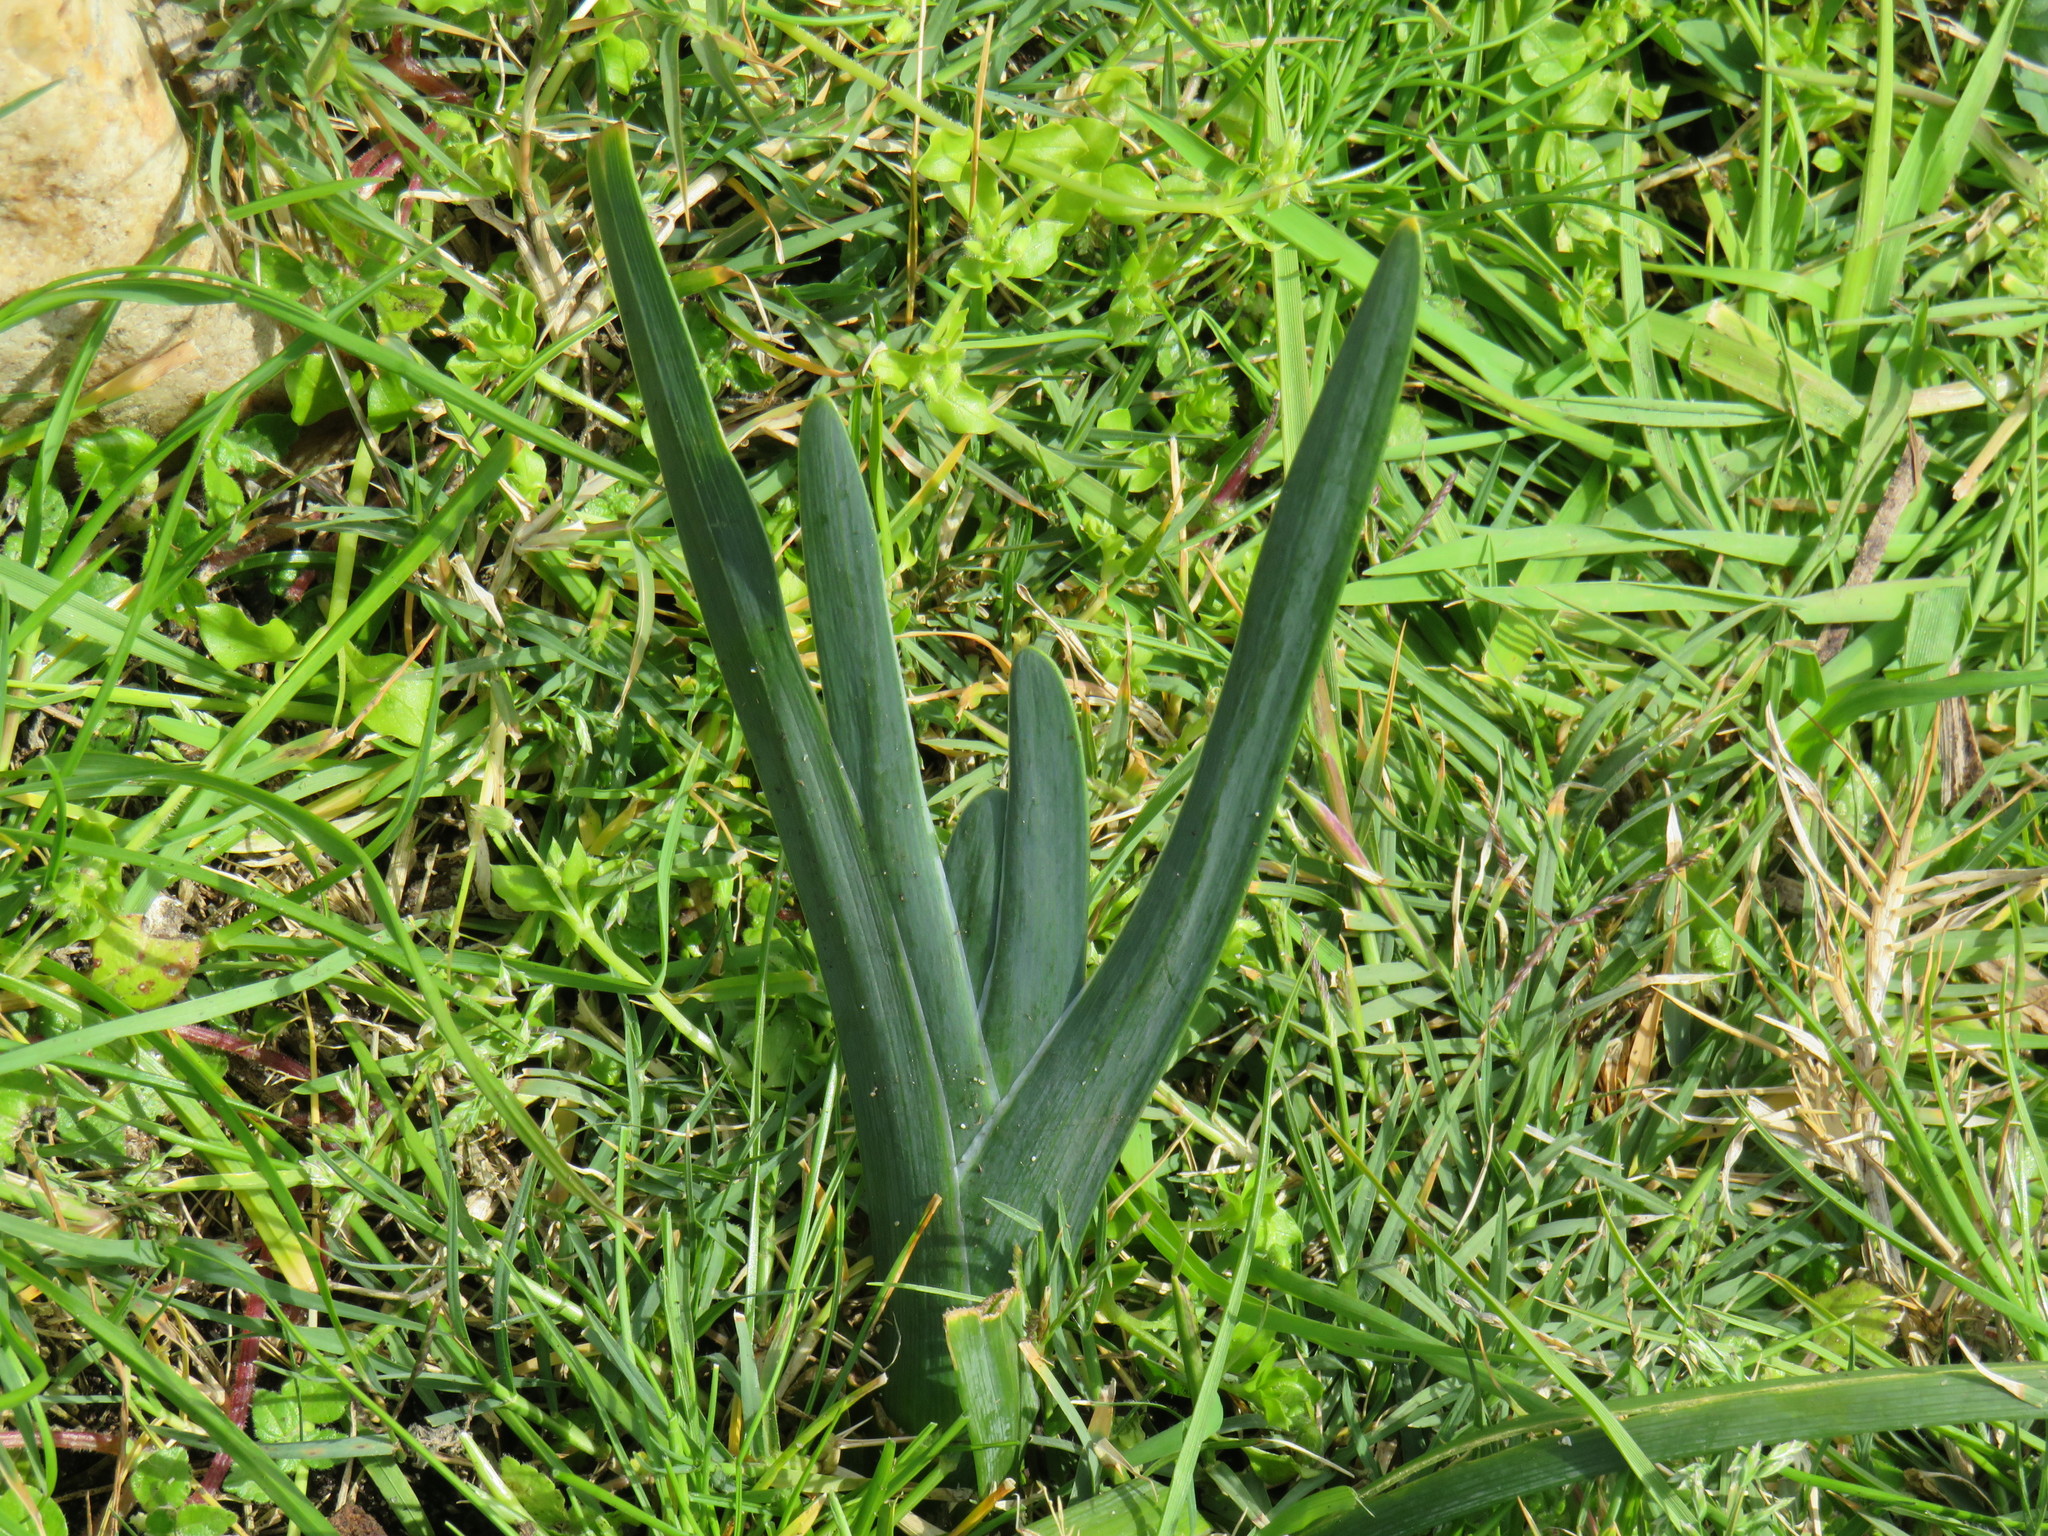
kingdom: Plantae
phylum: Tracheophyta
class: Liliopsida
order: Asparagales
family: Iridaceae
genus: Ferraria
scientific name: Ferraria crispa
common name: Black-flag
